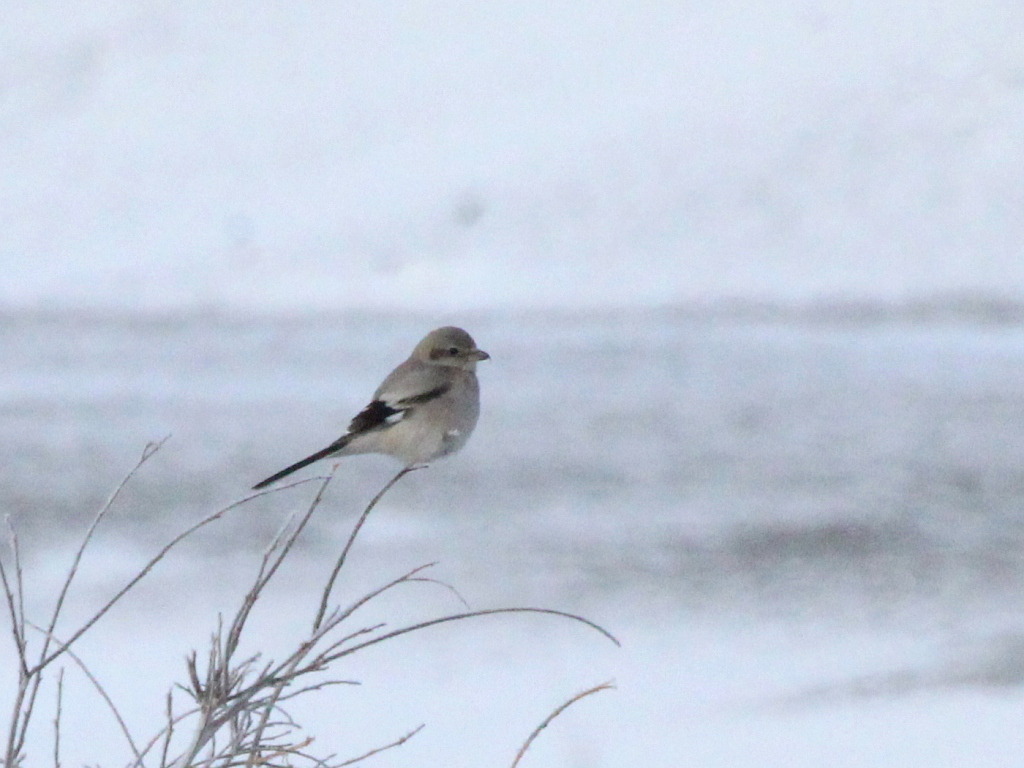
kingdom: Animalia
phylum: Chordata
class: Aves
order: Passeriformes
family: Laniidae
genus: Lanius
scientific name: Lanius borealis
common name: Northern shrike
